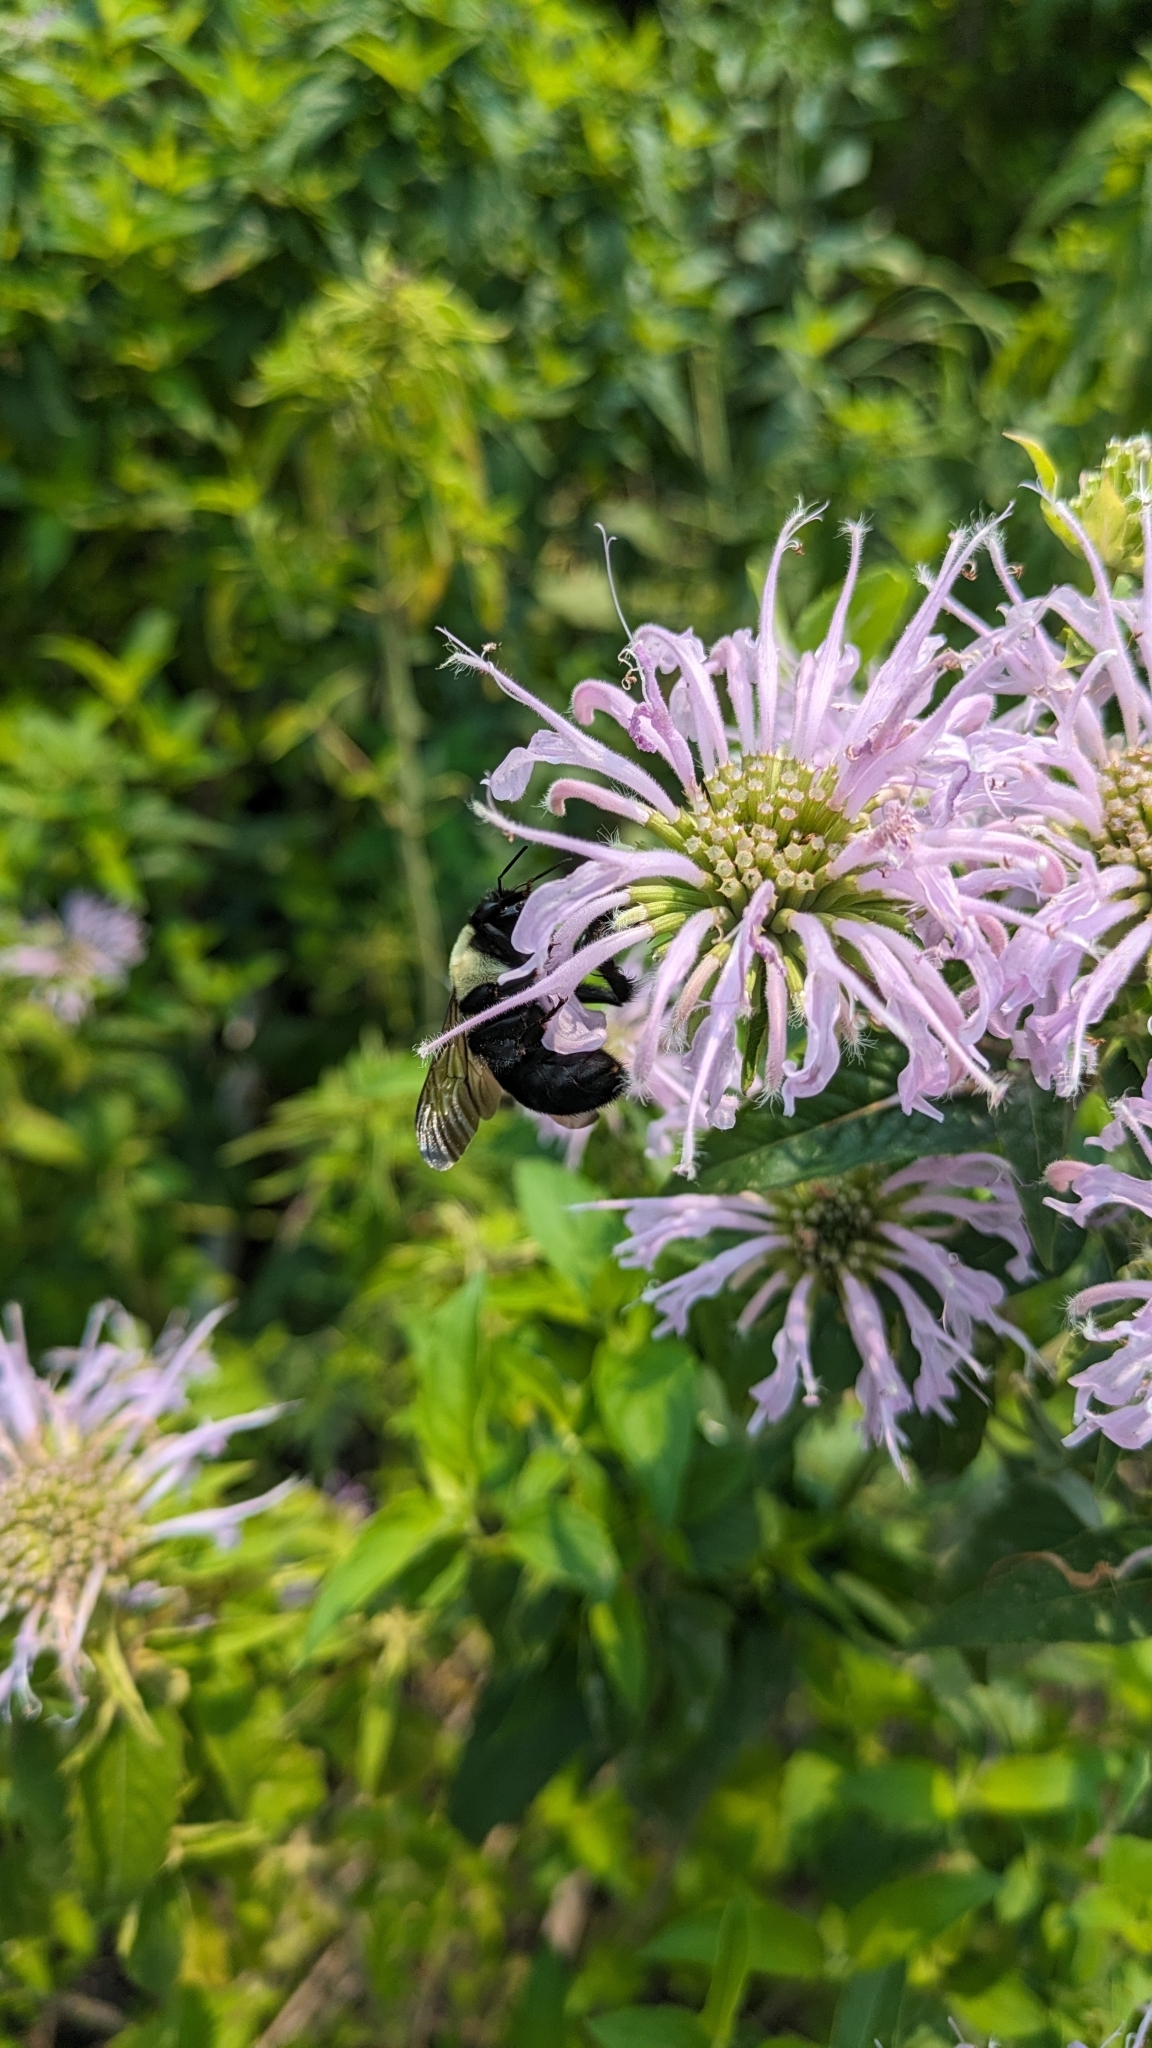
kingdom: Animalia
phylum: Arthropoda
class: Insecta
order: Hymenoptera
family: Apidae
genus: Bombus
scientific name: Bombus griseocollis
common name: Brown-belted bumble bee
